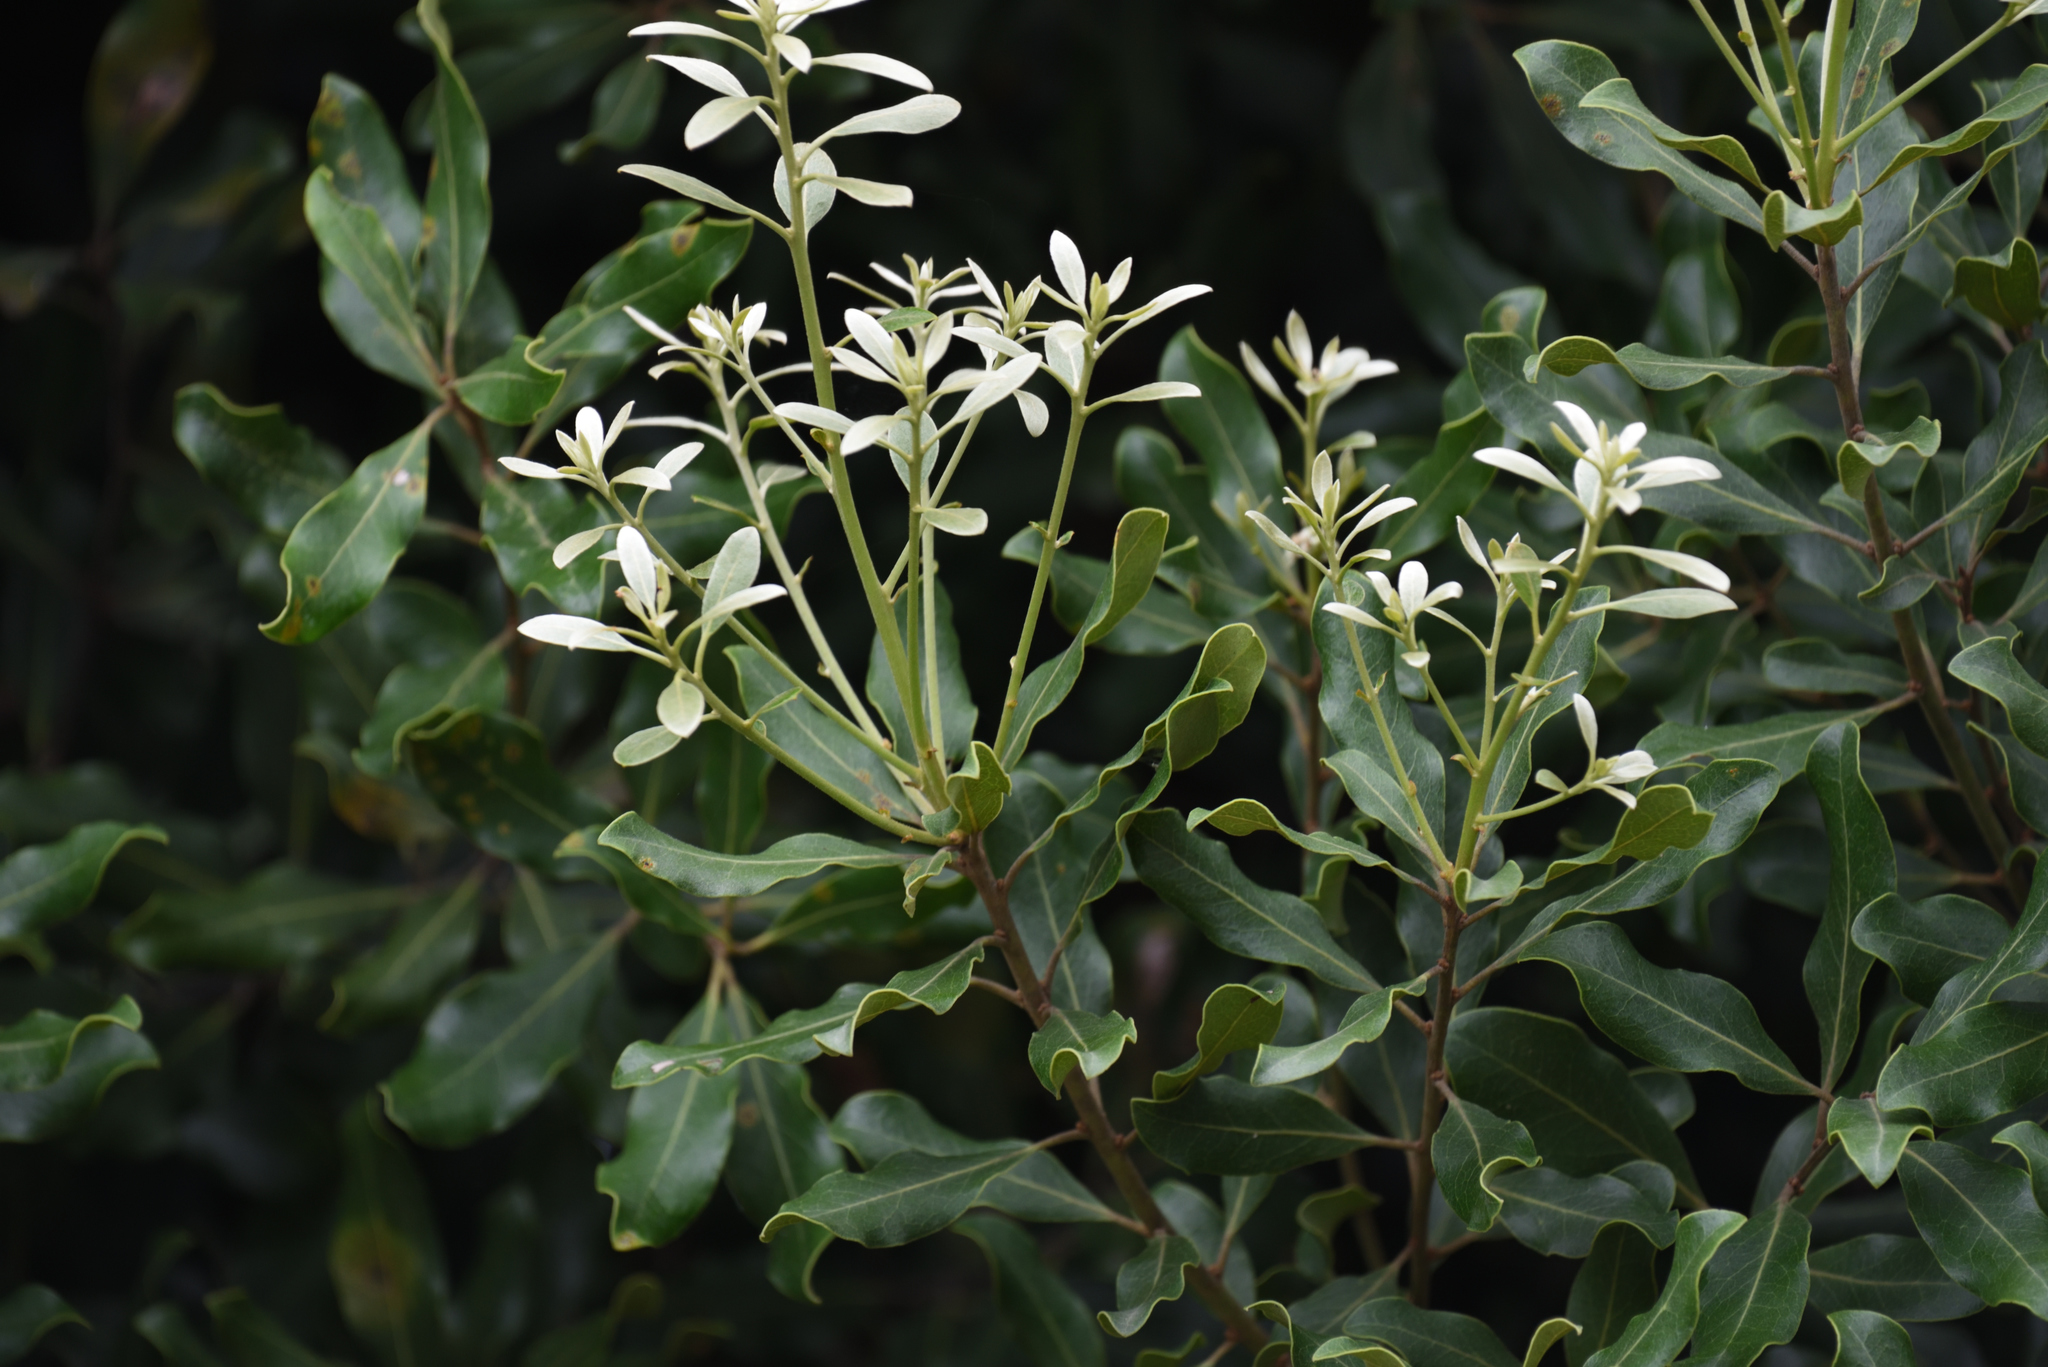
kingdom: Plantae
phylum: Tracheophyta
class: Magnoliopsida
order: Ericales
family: Ebenaceae
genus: Euclea
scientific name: Euclea natalensis
